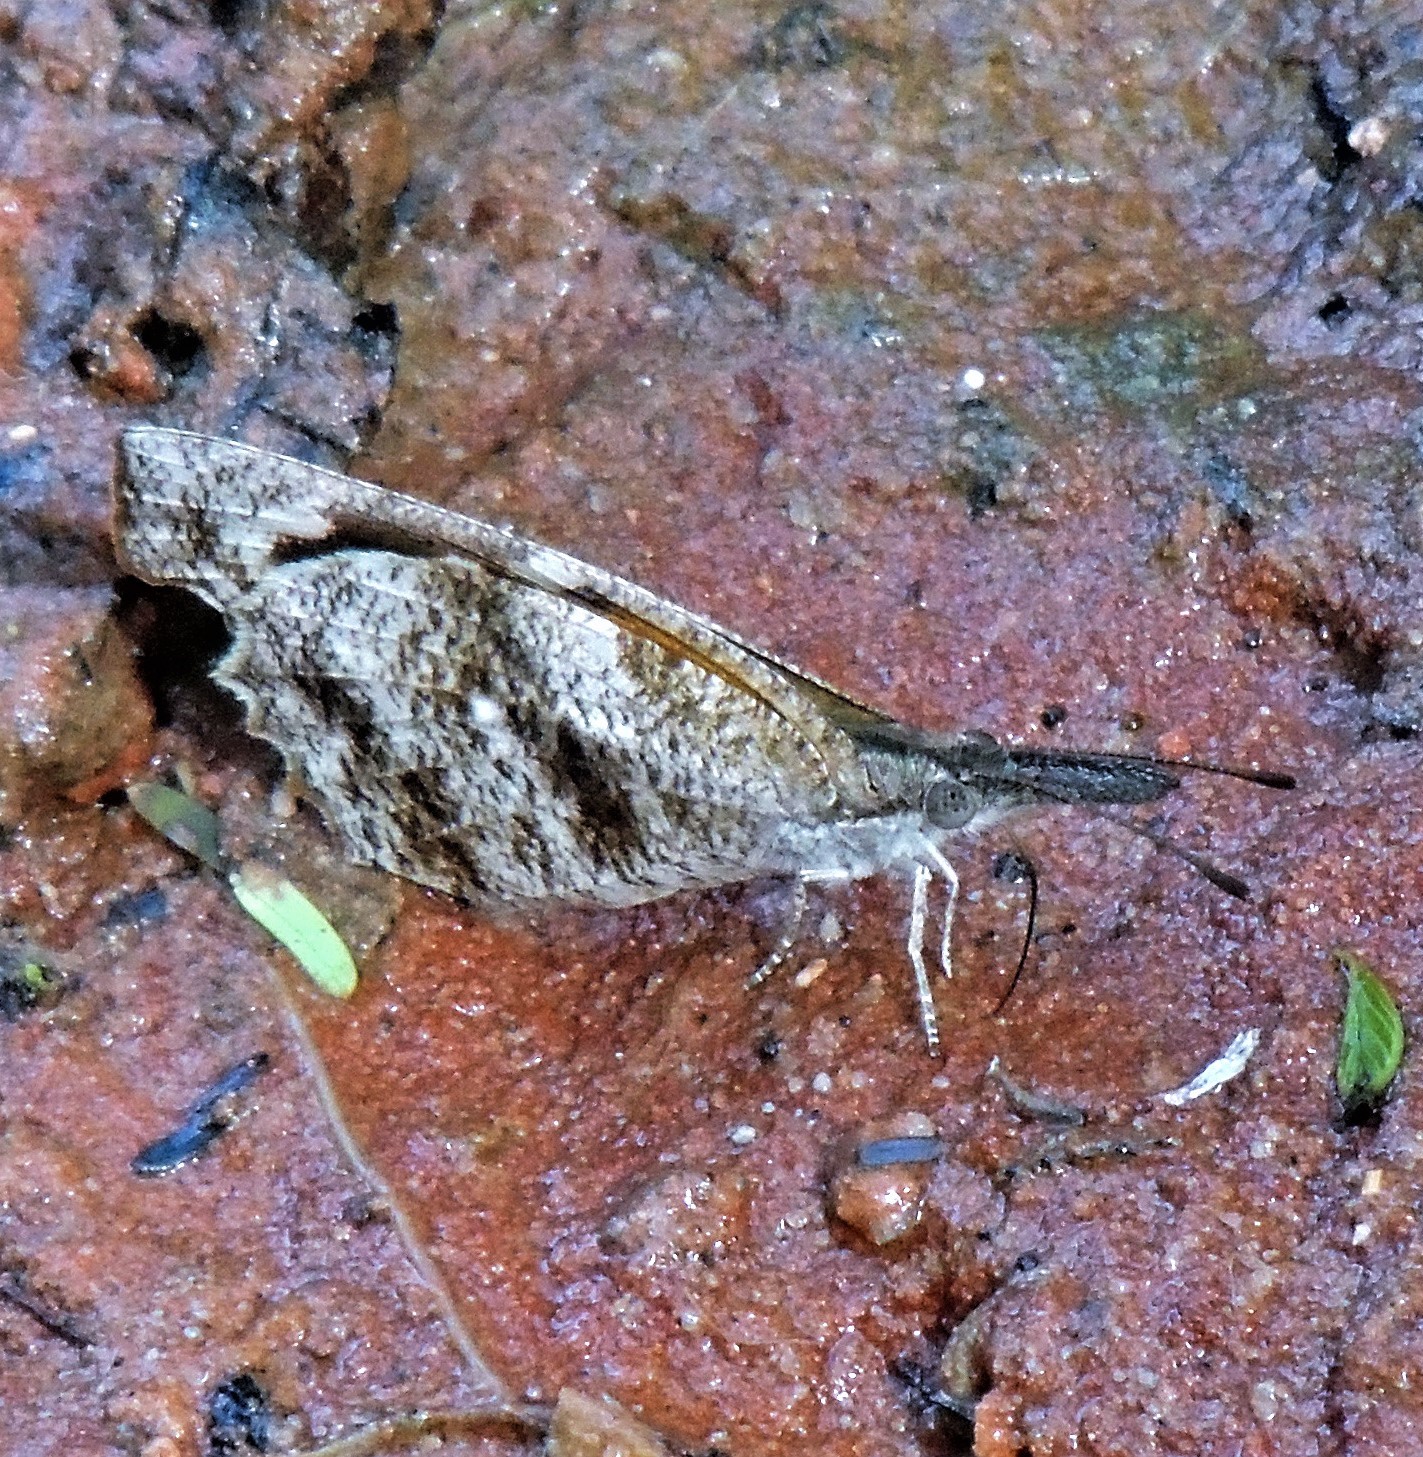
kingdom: Animalia
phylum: Arthropoda
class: Insecta
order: Lepidoptera
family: Nymphalidae
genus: Libytheana
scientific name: Libytheana carinenta
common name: American snout
